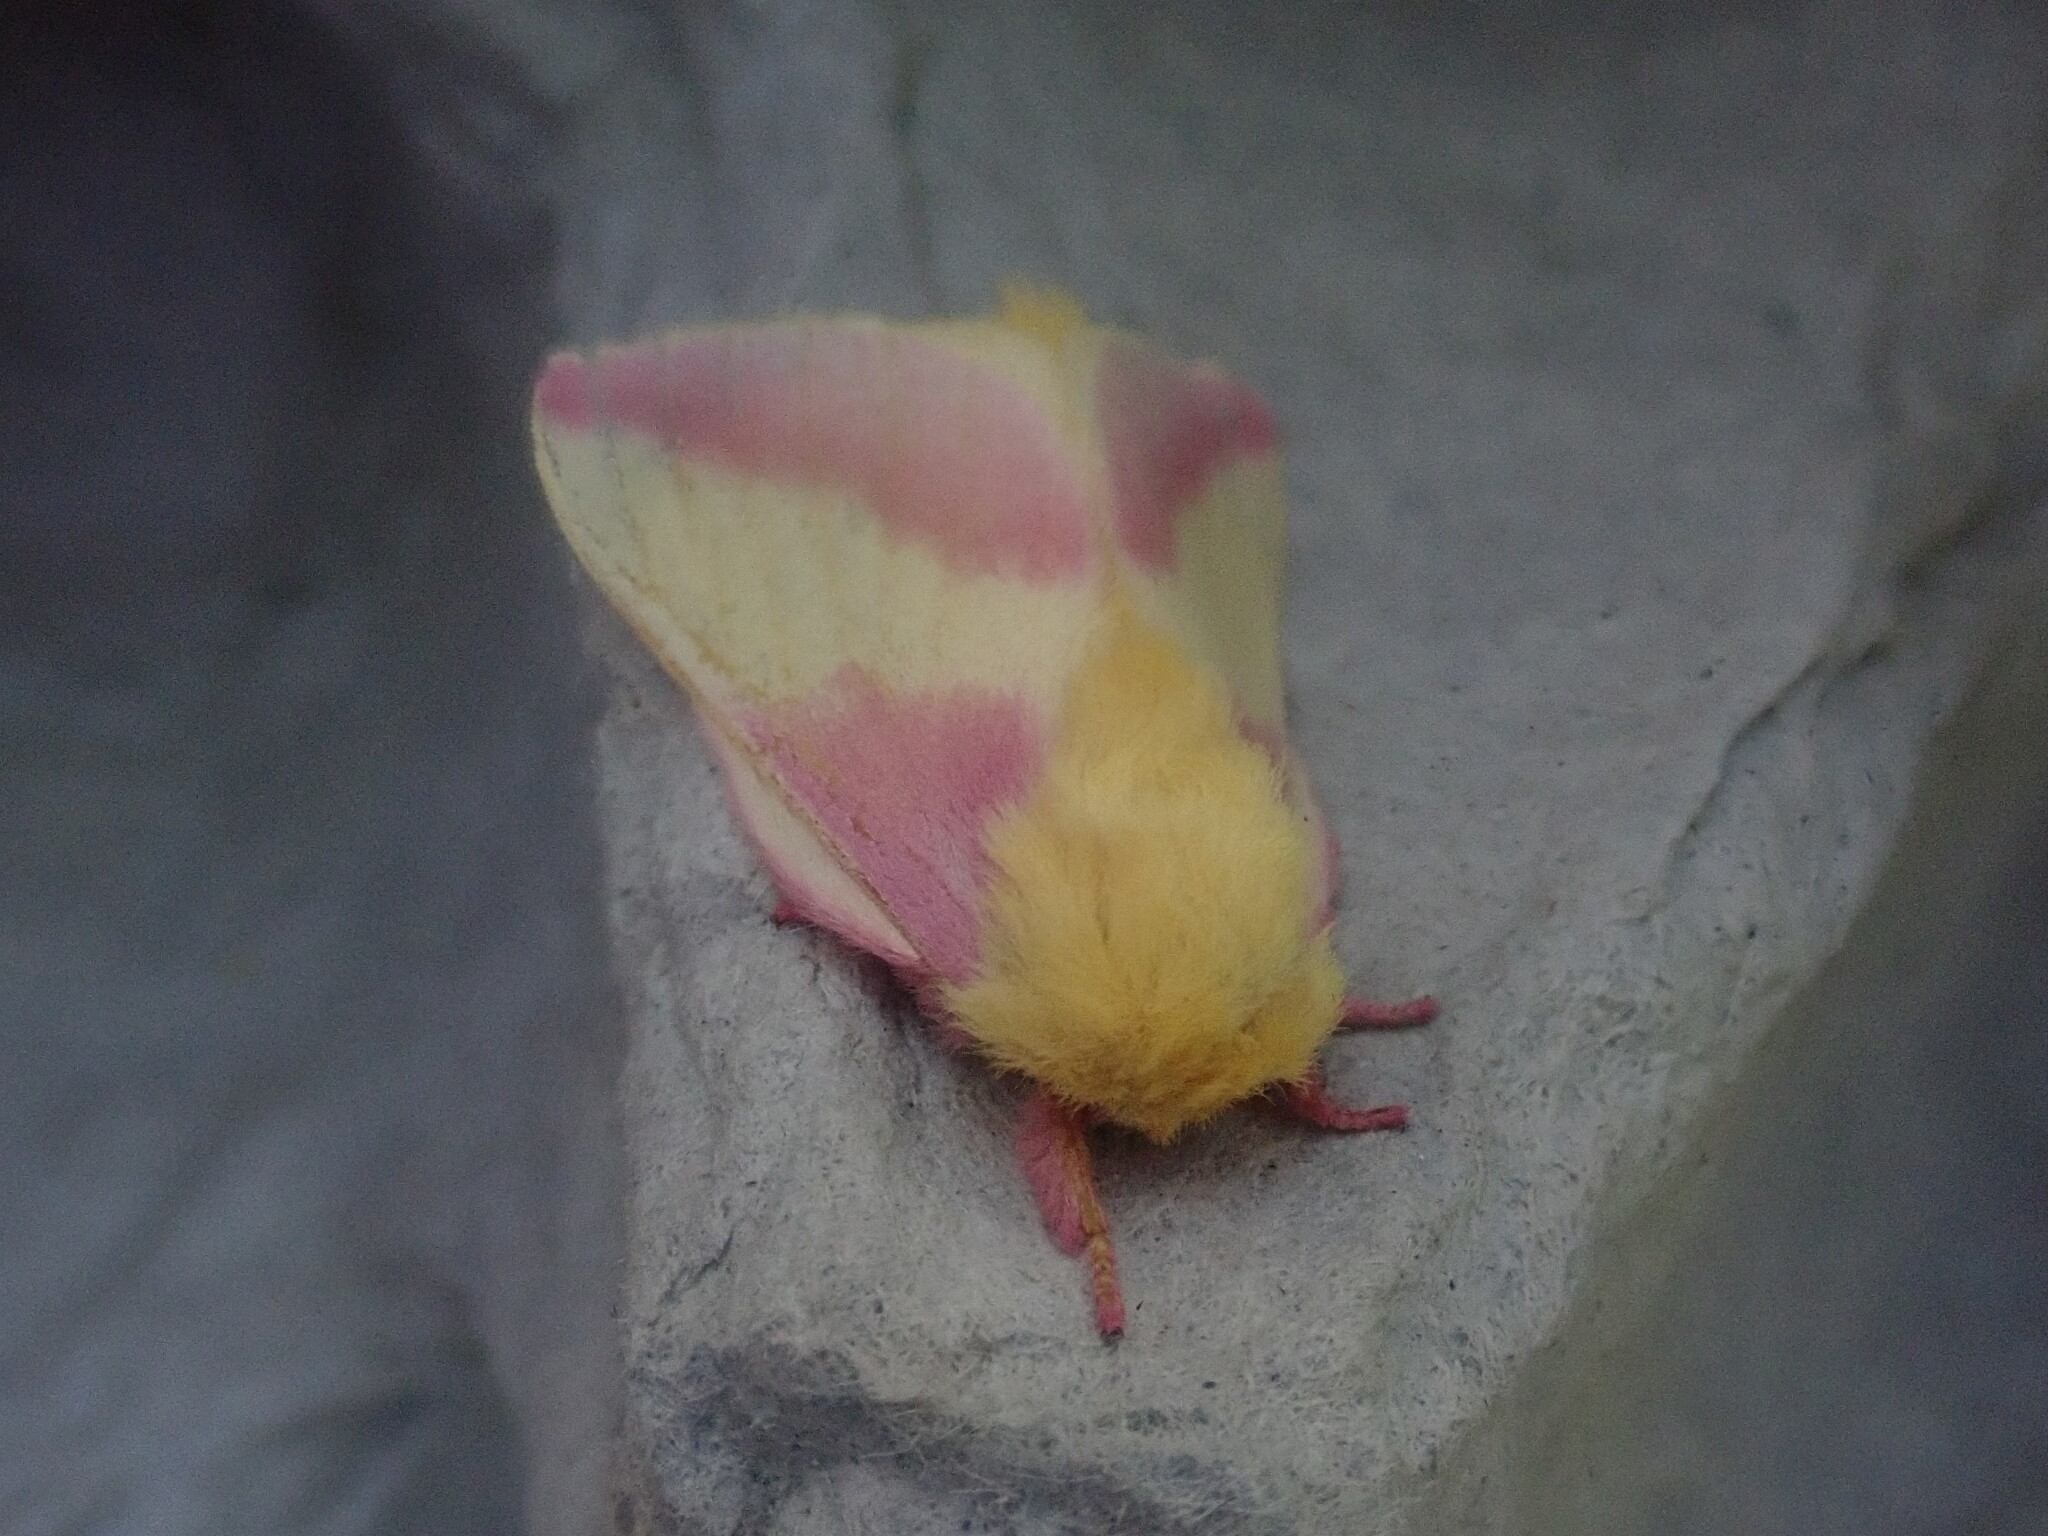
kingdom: Animalia
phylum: Arthropoda
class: Insecta
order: Lepidoptera
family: Saturniidae
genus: Dryocampa
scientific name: Dryocampa rubicunda
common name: Rosy maple moth
